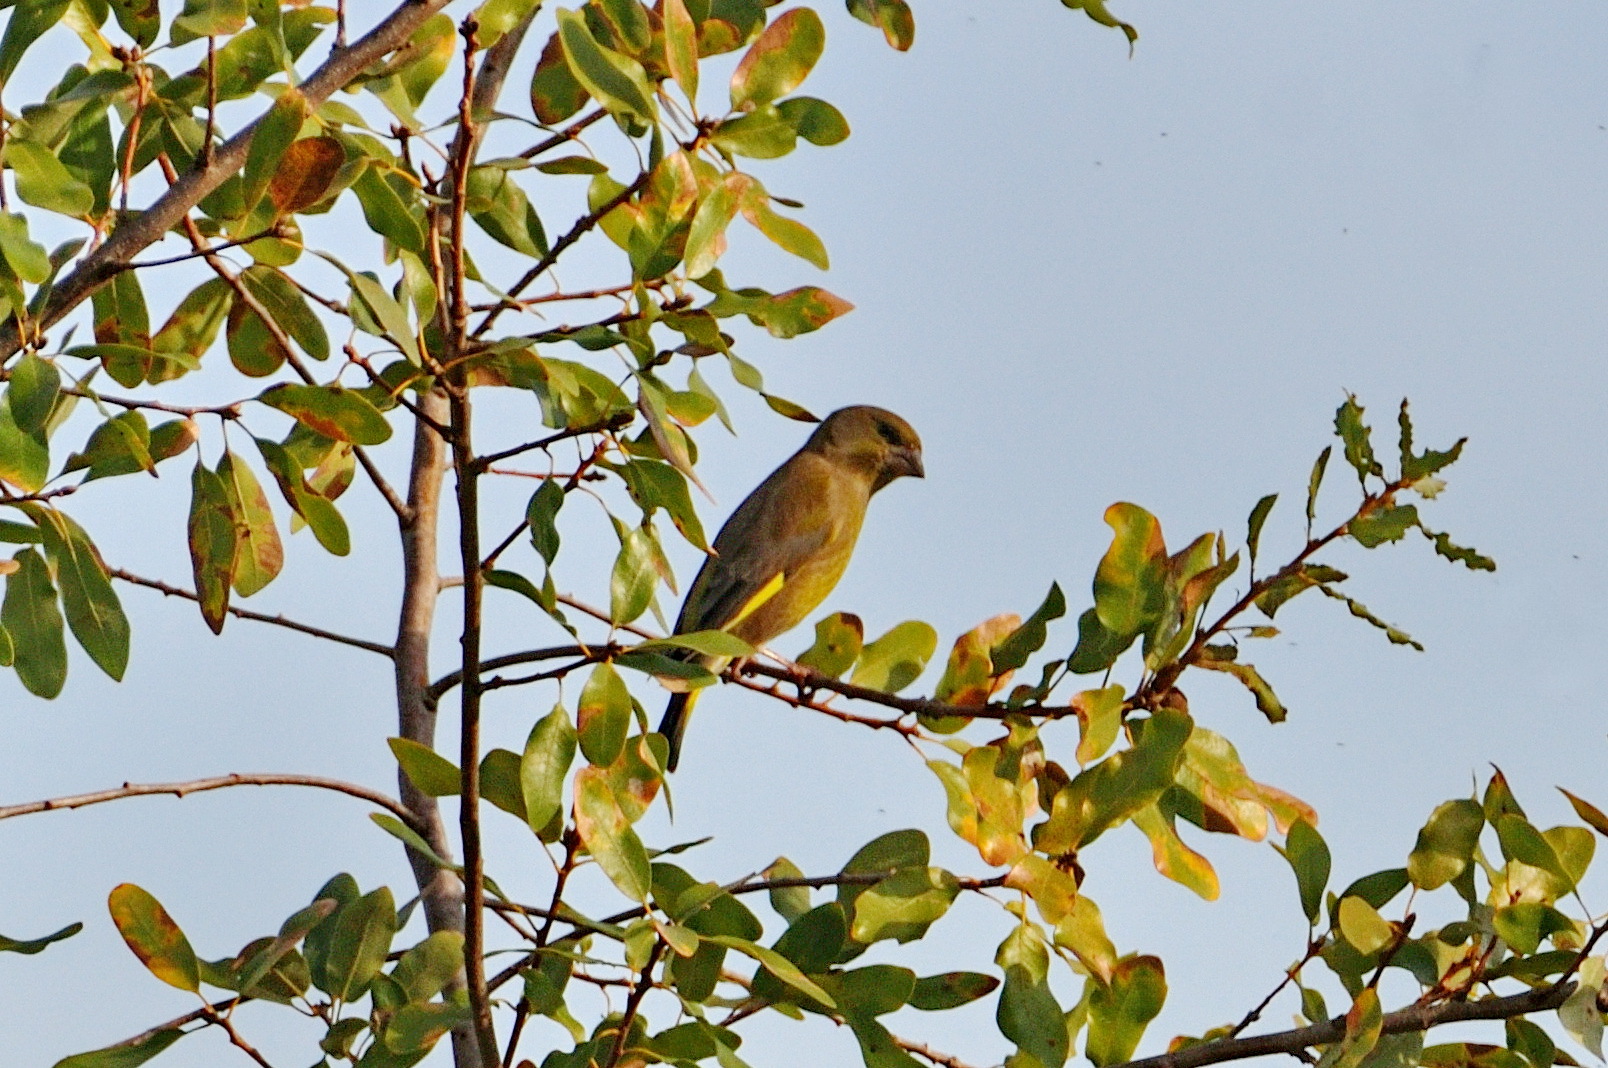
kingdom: Plantae
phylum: Tracheophyta
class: Liliopsida
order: Poales
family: Poaceae
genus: Chloris
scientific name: Chloris chloris
